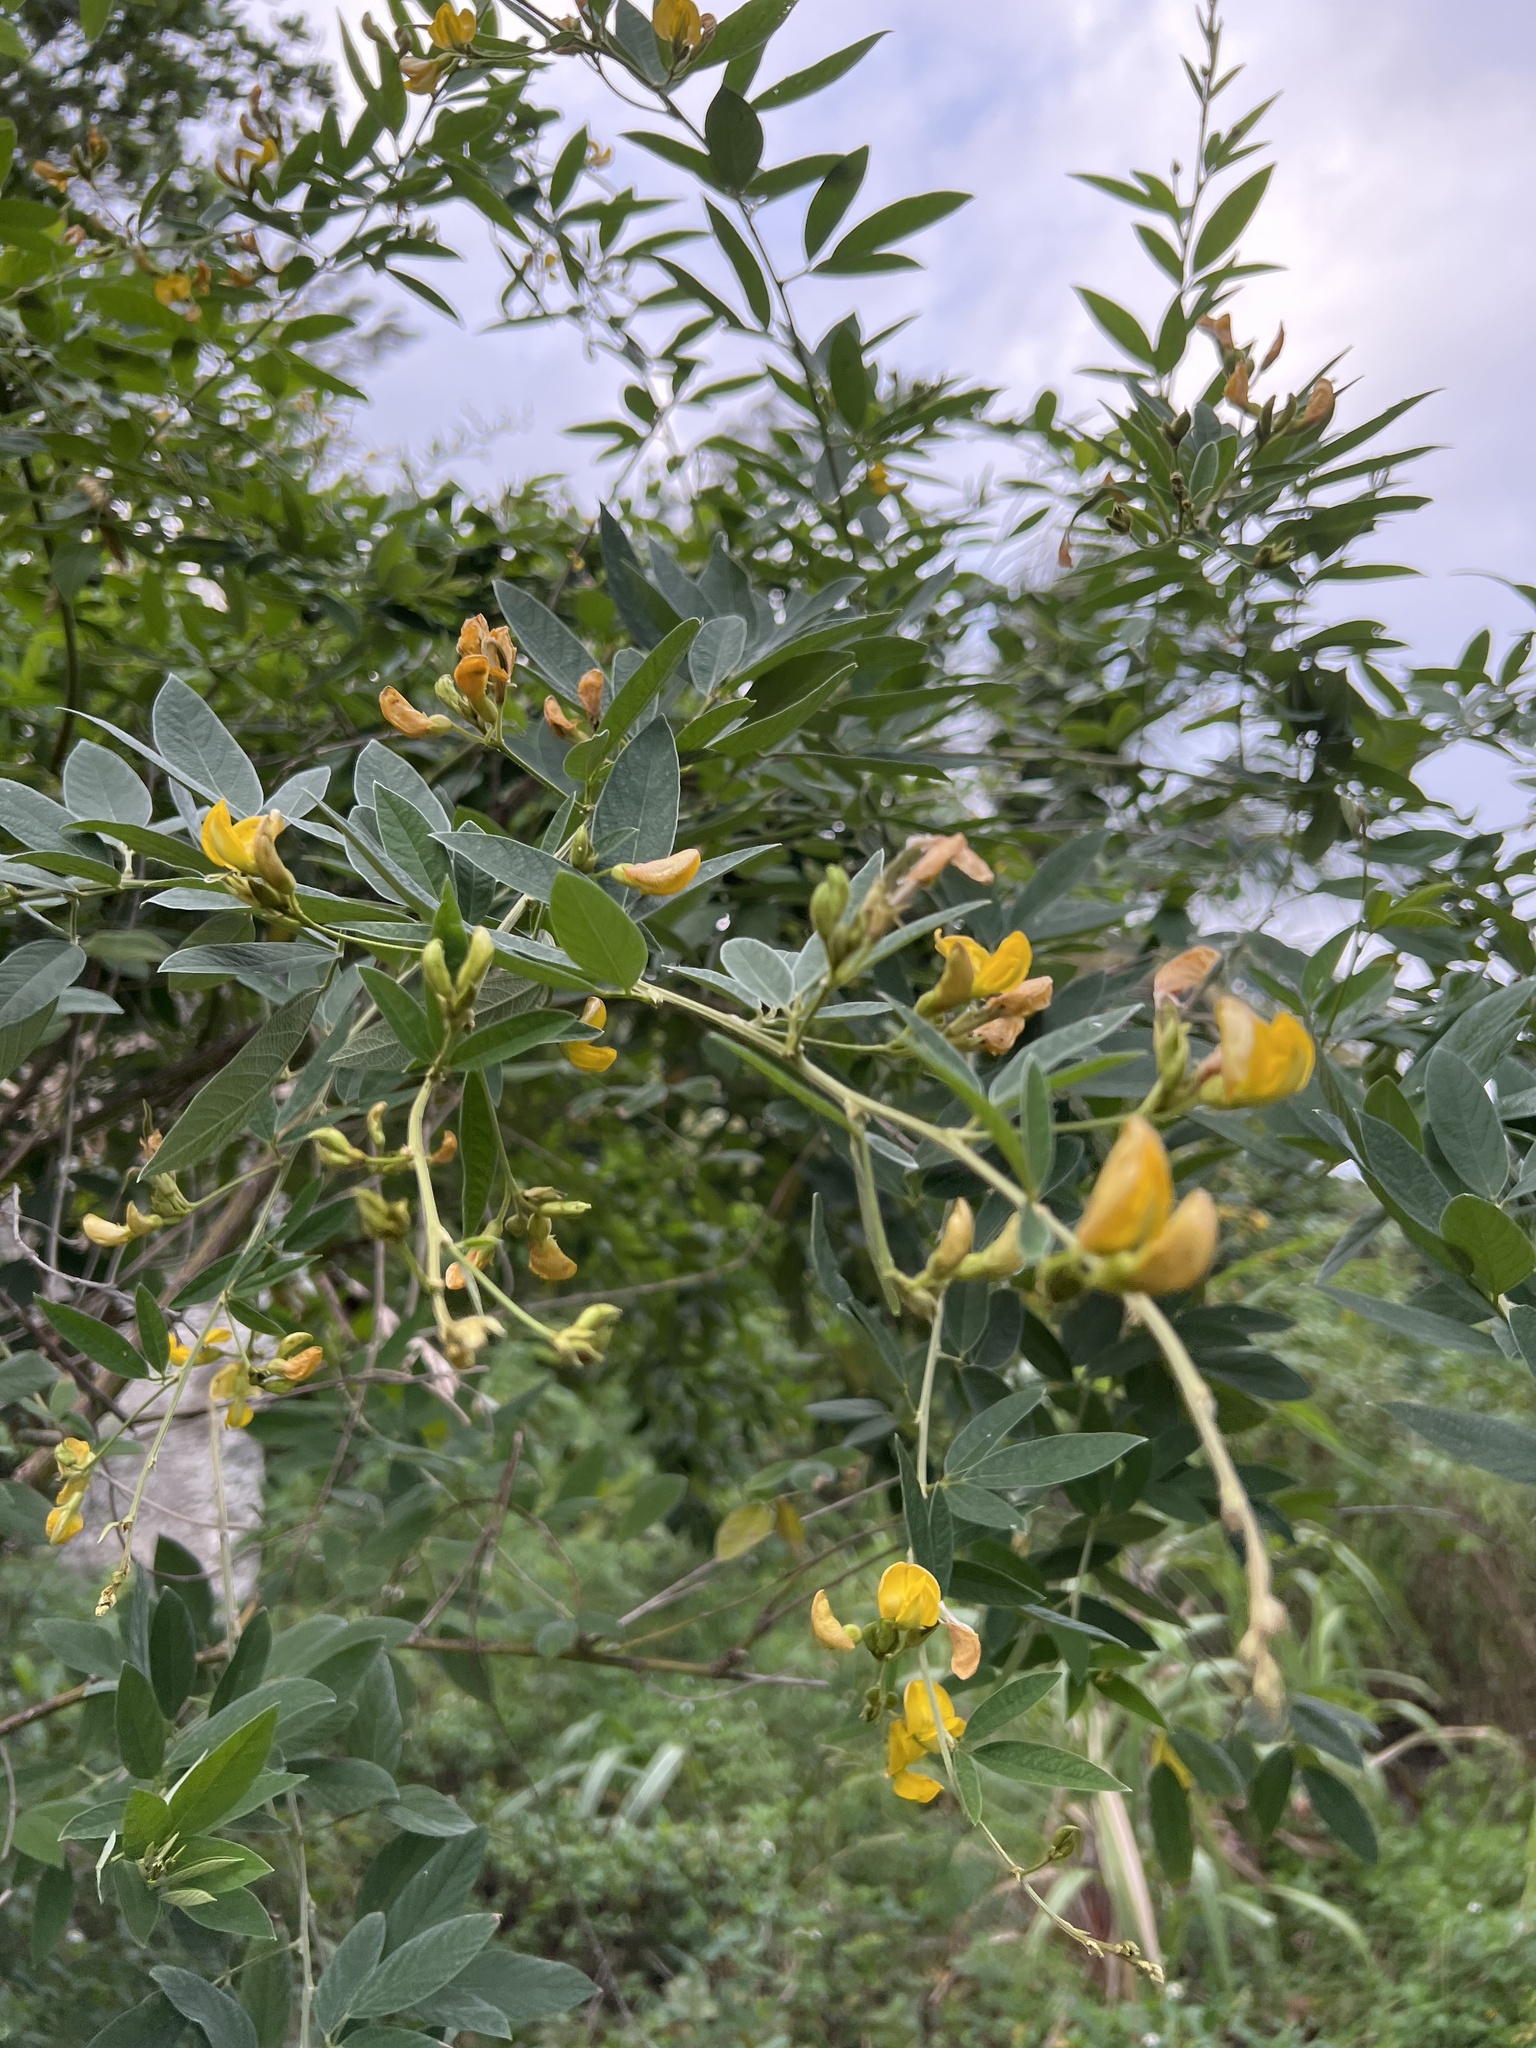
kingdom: Plantae
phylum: Tracheophyta
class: Magnoliopsida
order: Fabales
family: Fabaceae
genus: Cajanus
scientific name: Cajanus cajan
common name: Pigeonpea
